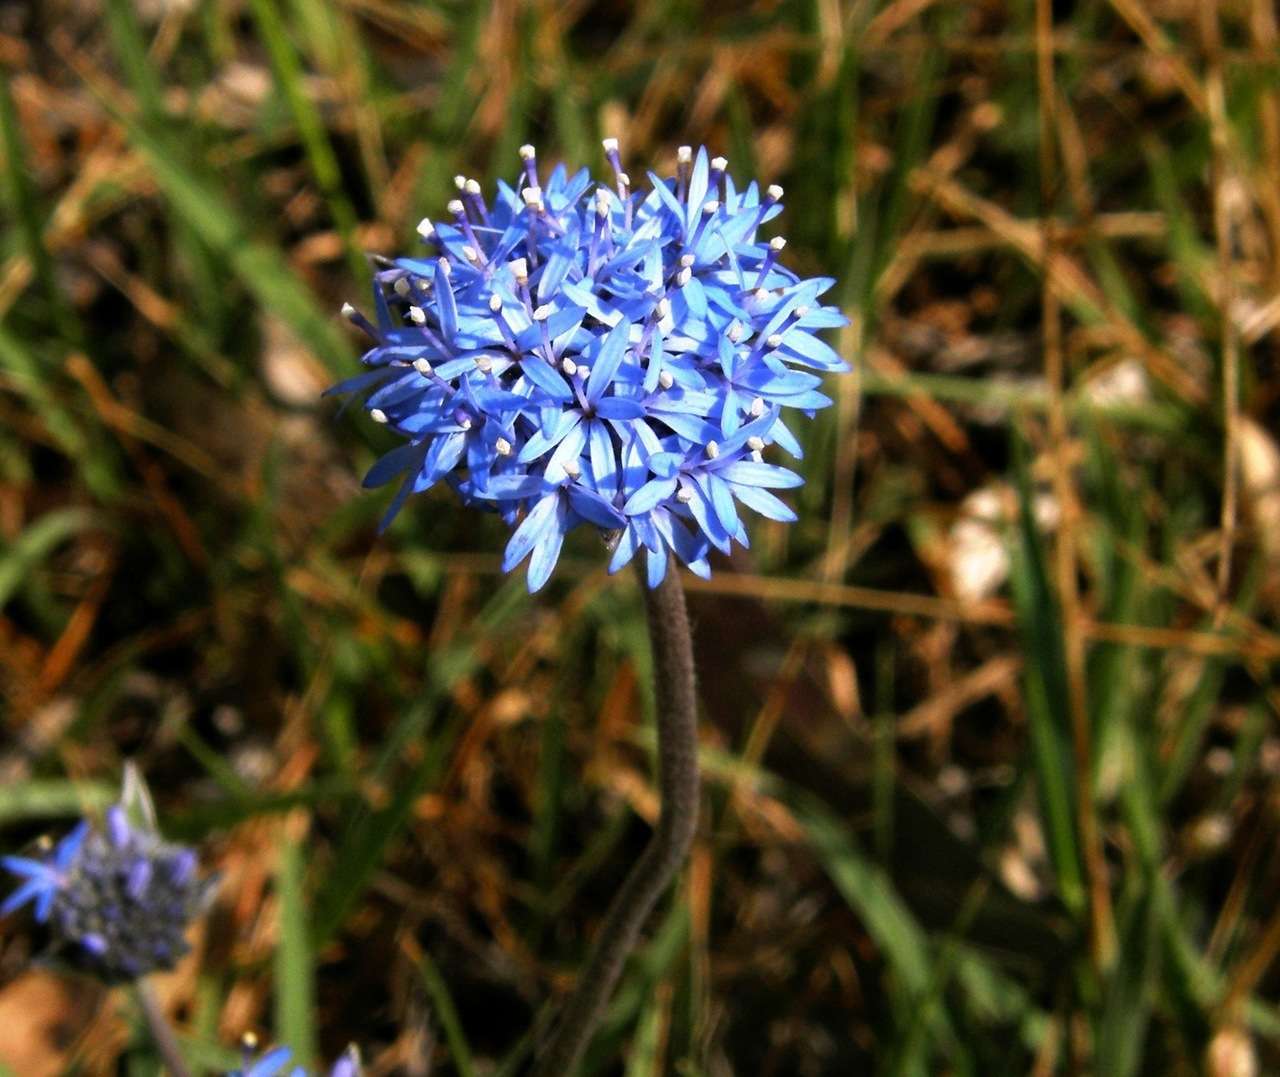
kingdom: Plantae
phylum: Tracheophyta
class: Magnoliopsida
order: Asterales
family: Goodeniaceae
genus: Brunonia
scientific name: Brunonia australis
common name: Blue pincushion
